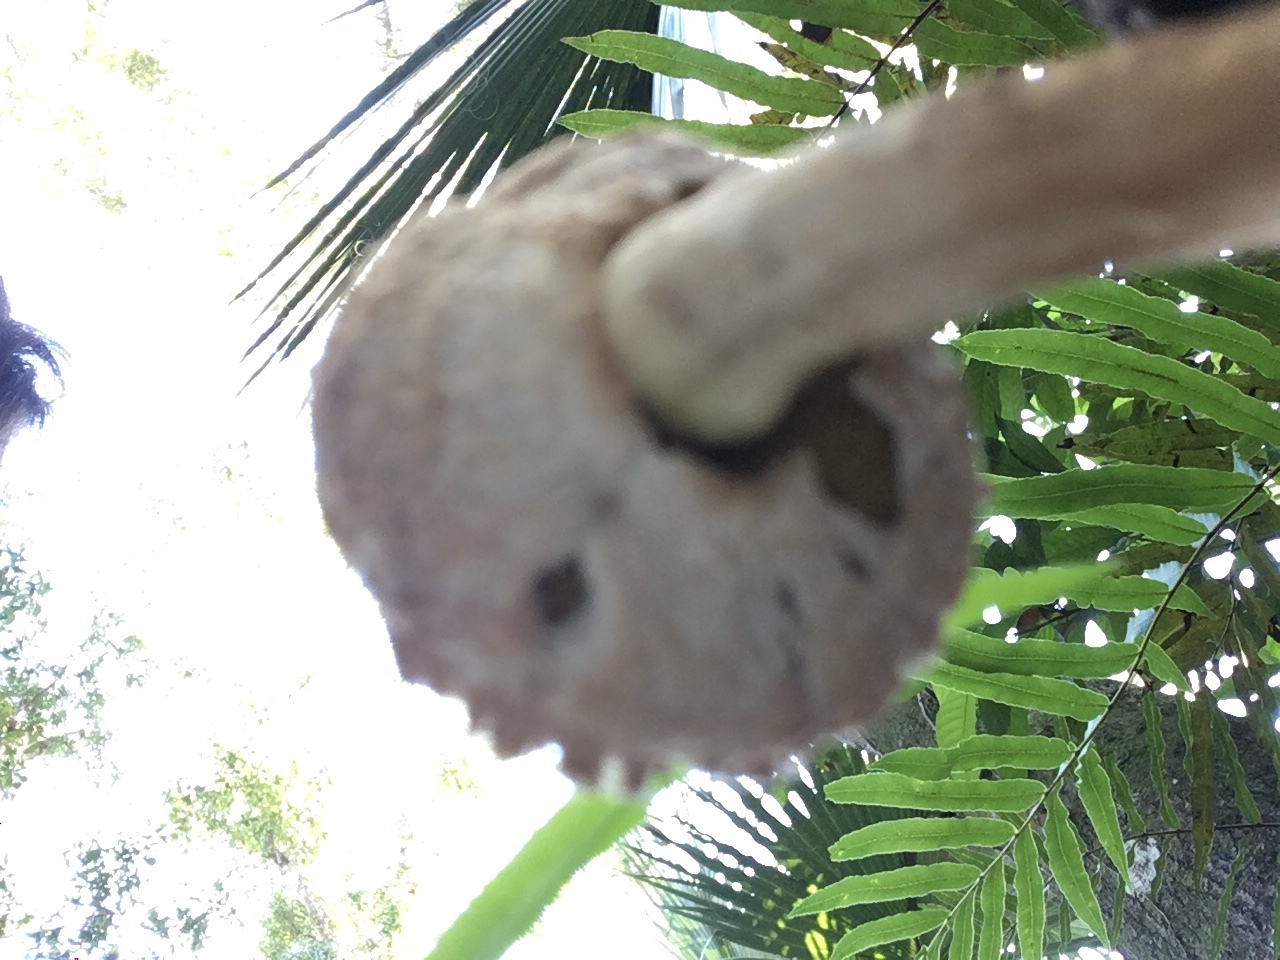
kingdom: Fungi
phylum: Basidiomycota
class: Agaricomycetes
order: Boletales
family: Boletaceae
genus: Boletellus
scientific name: Boletellus ananas
